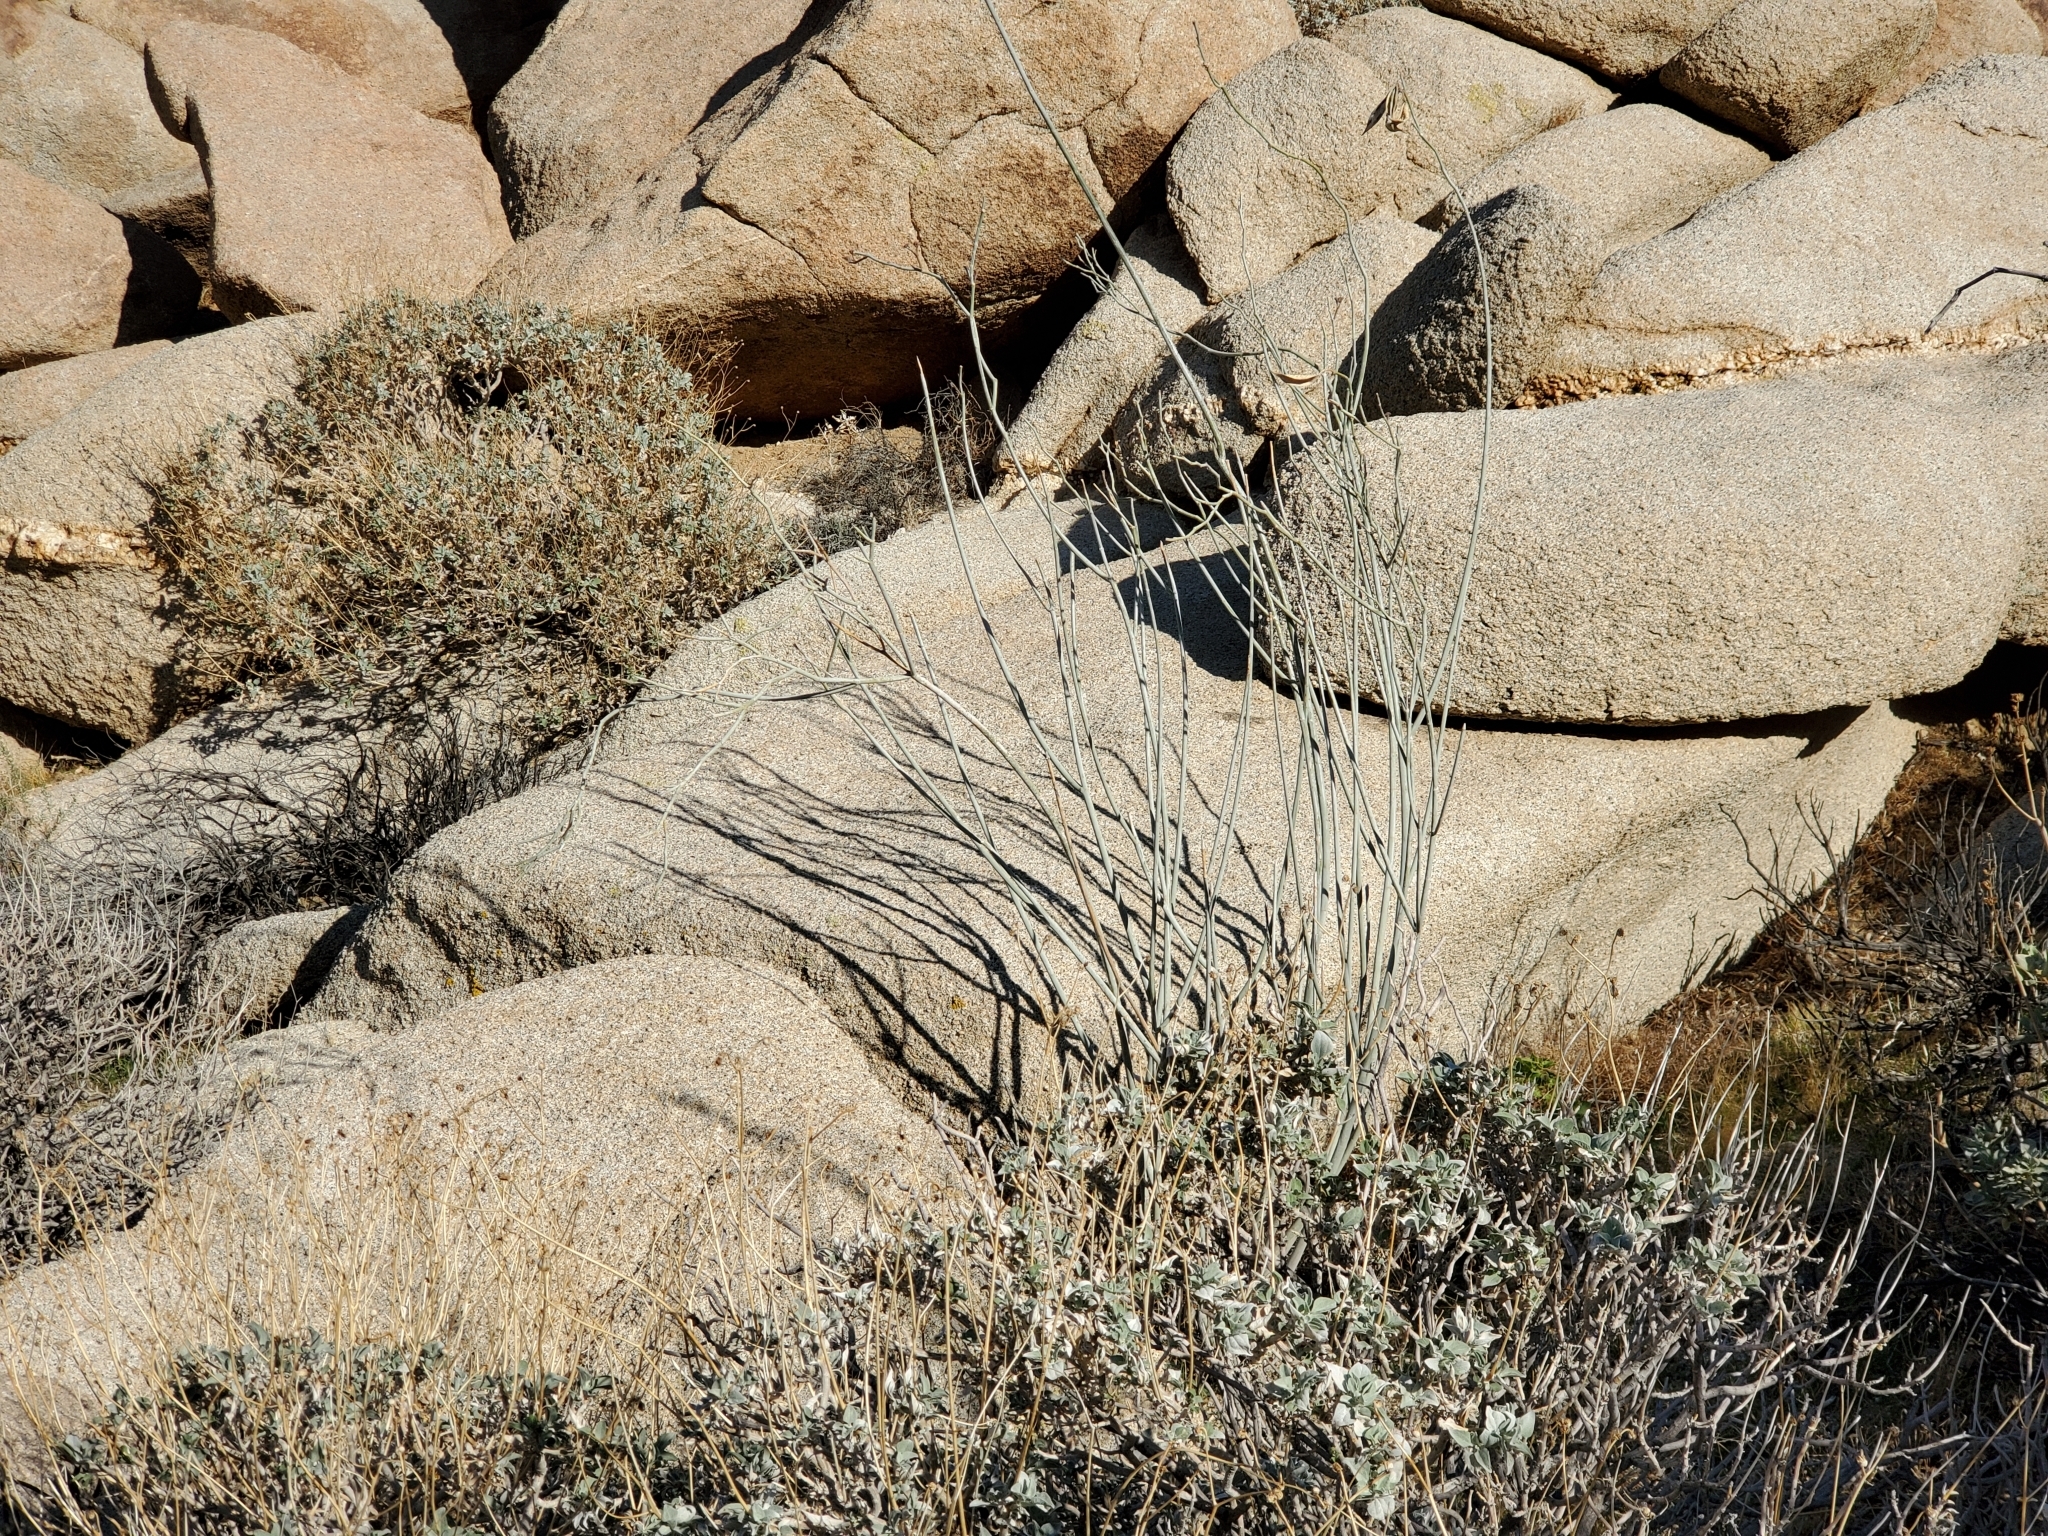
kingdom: Plantae
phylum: Tracheophyta
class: Magnoliopsida
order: Gentianales
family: Apocynaceae
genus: Asclepias
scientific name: Asclepias albicans
